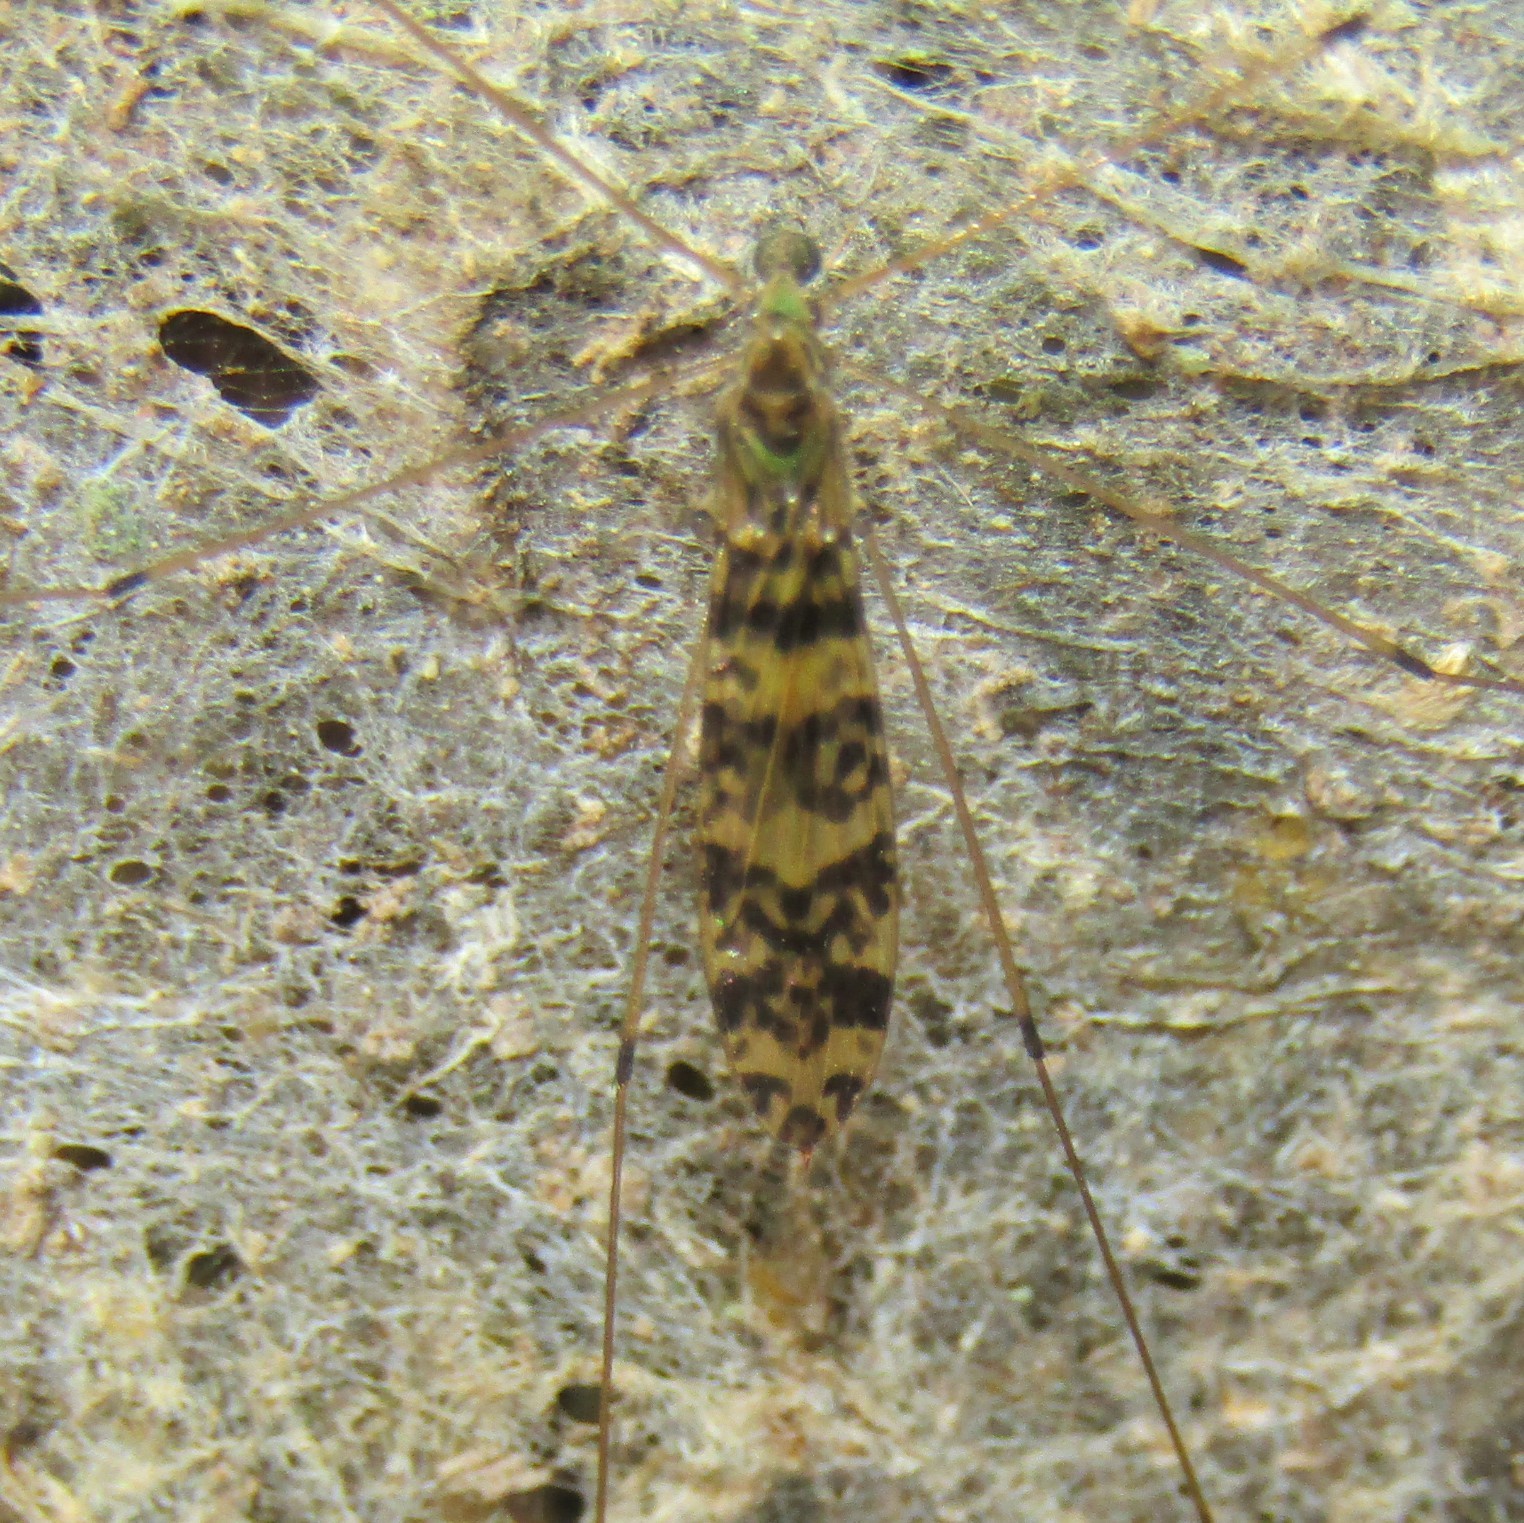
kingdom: Animalia
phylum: Arthropoda
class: Insecta
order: Diptera
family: Limoniidae
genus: Discobola
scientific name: Discobola gibberina
